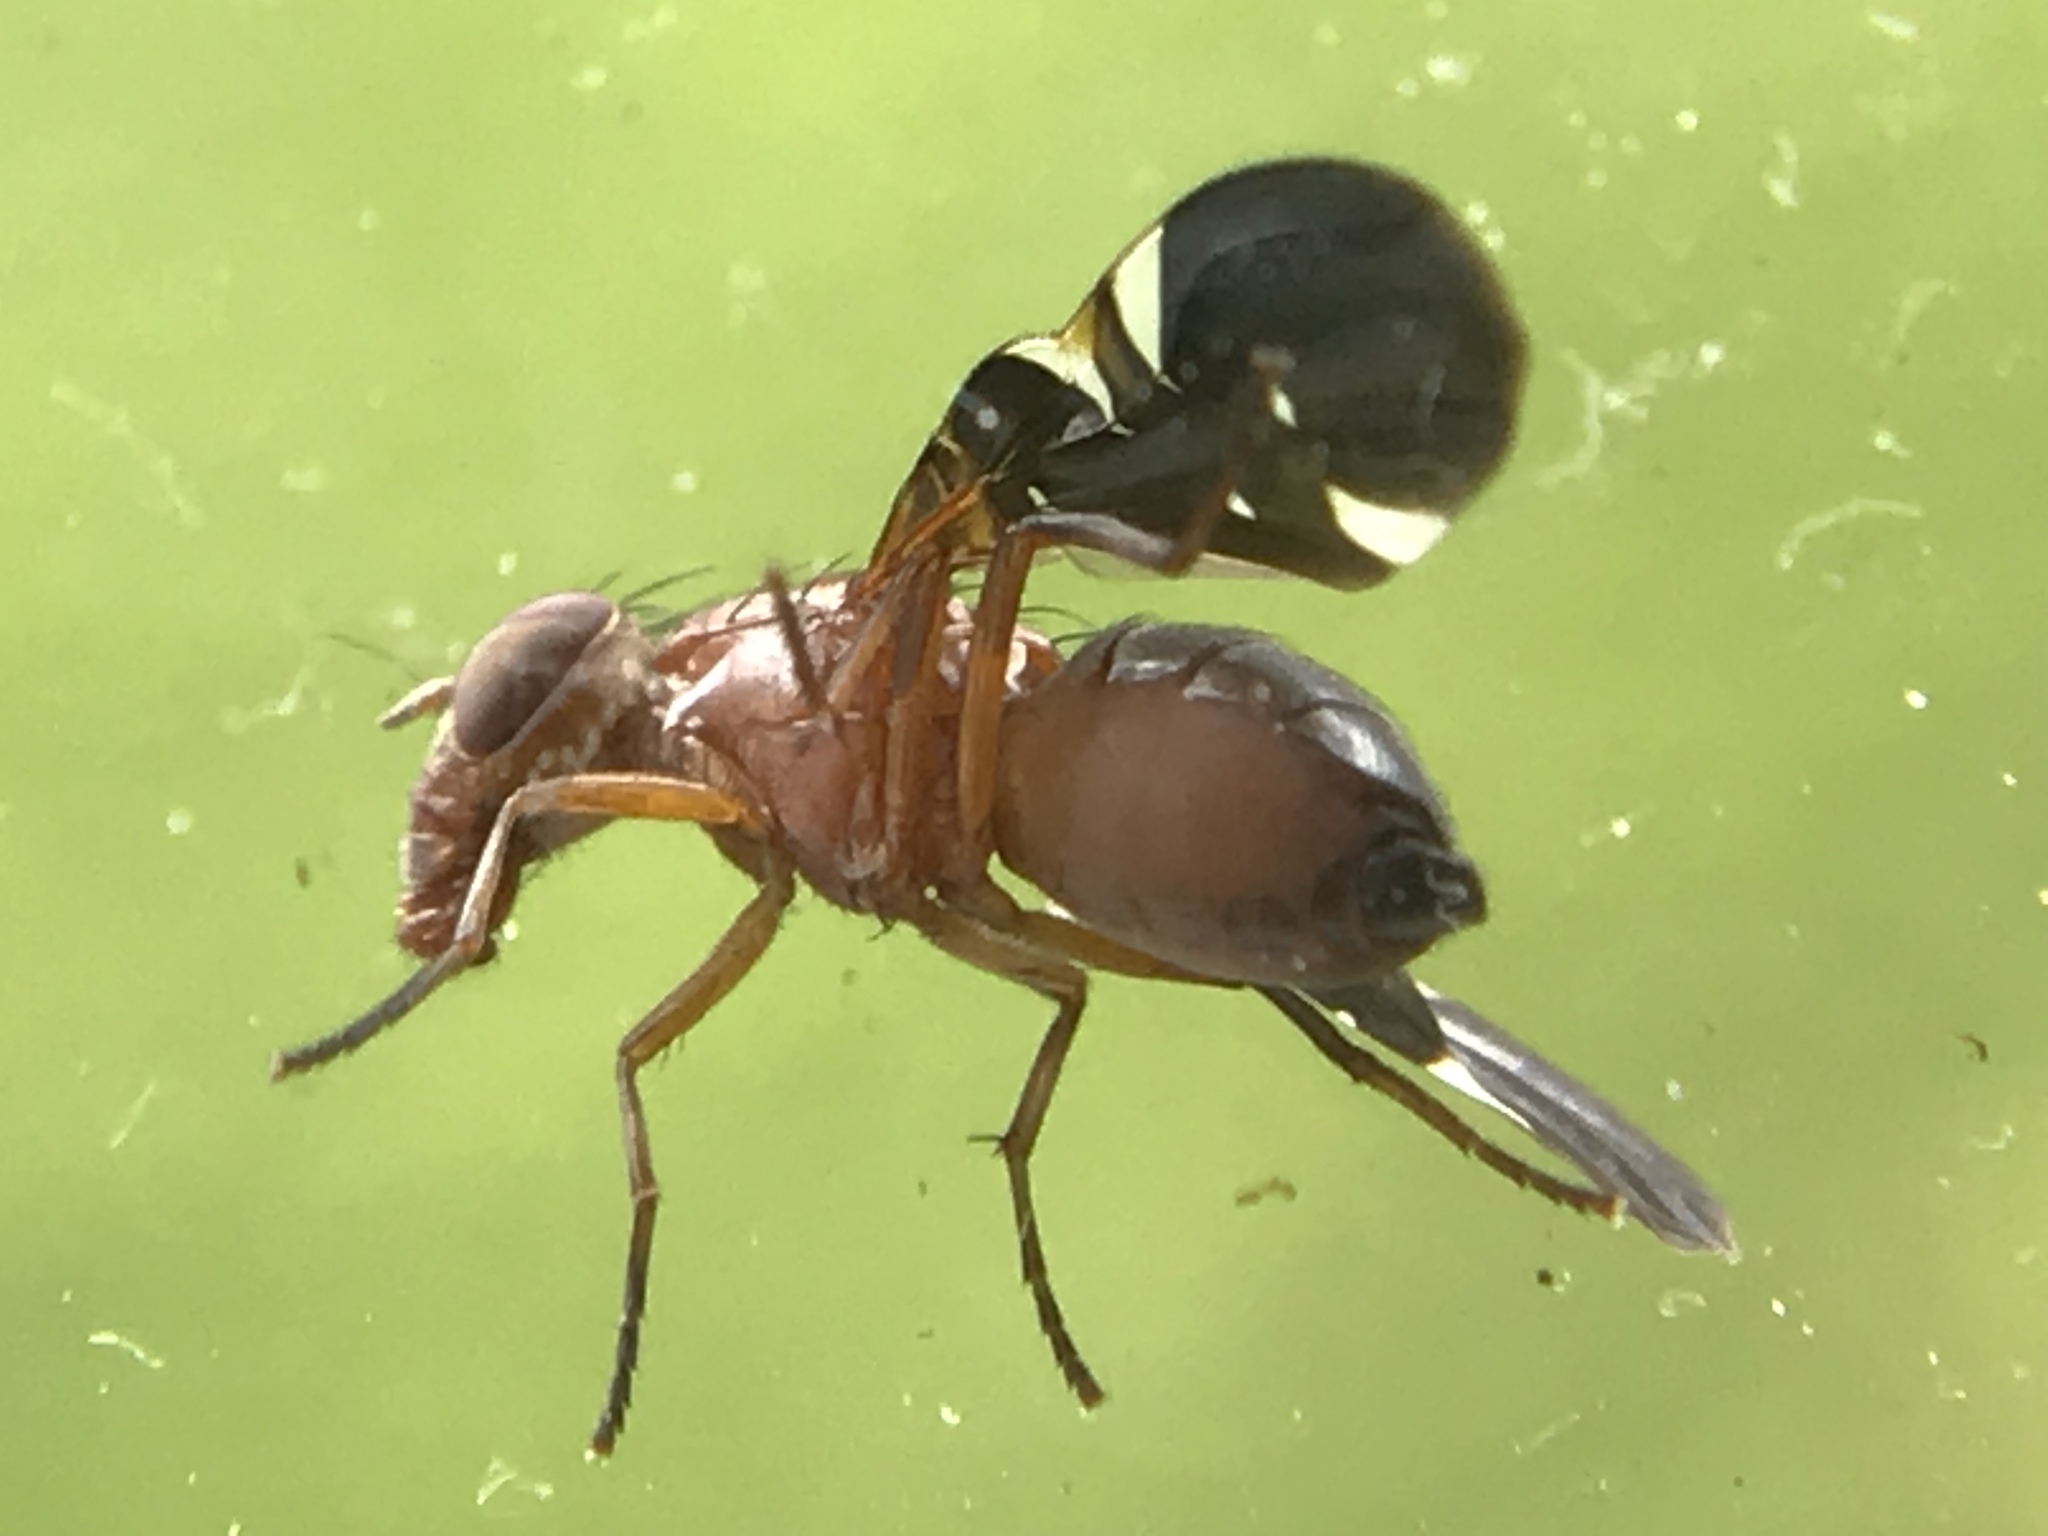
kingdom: Animalia
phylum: Arthropoda
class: Insecta
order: Diptera
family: Ulidiidae
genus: Delphinia
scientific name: Delphinia picta
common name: Common picture-winged fly
